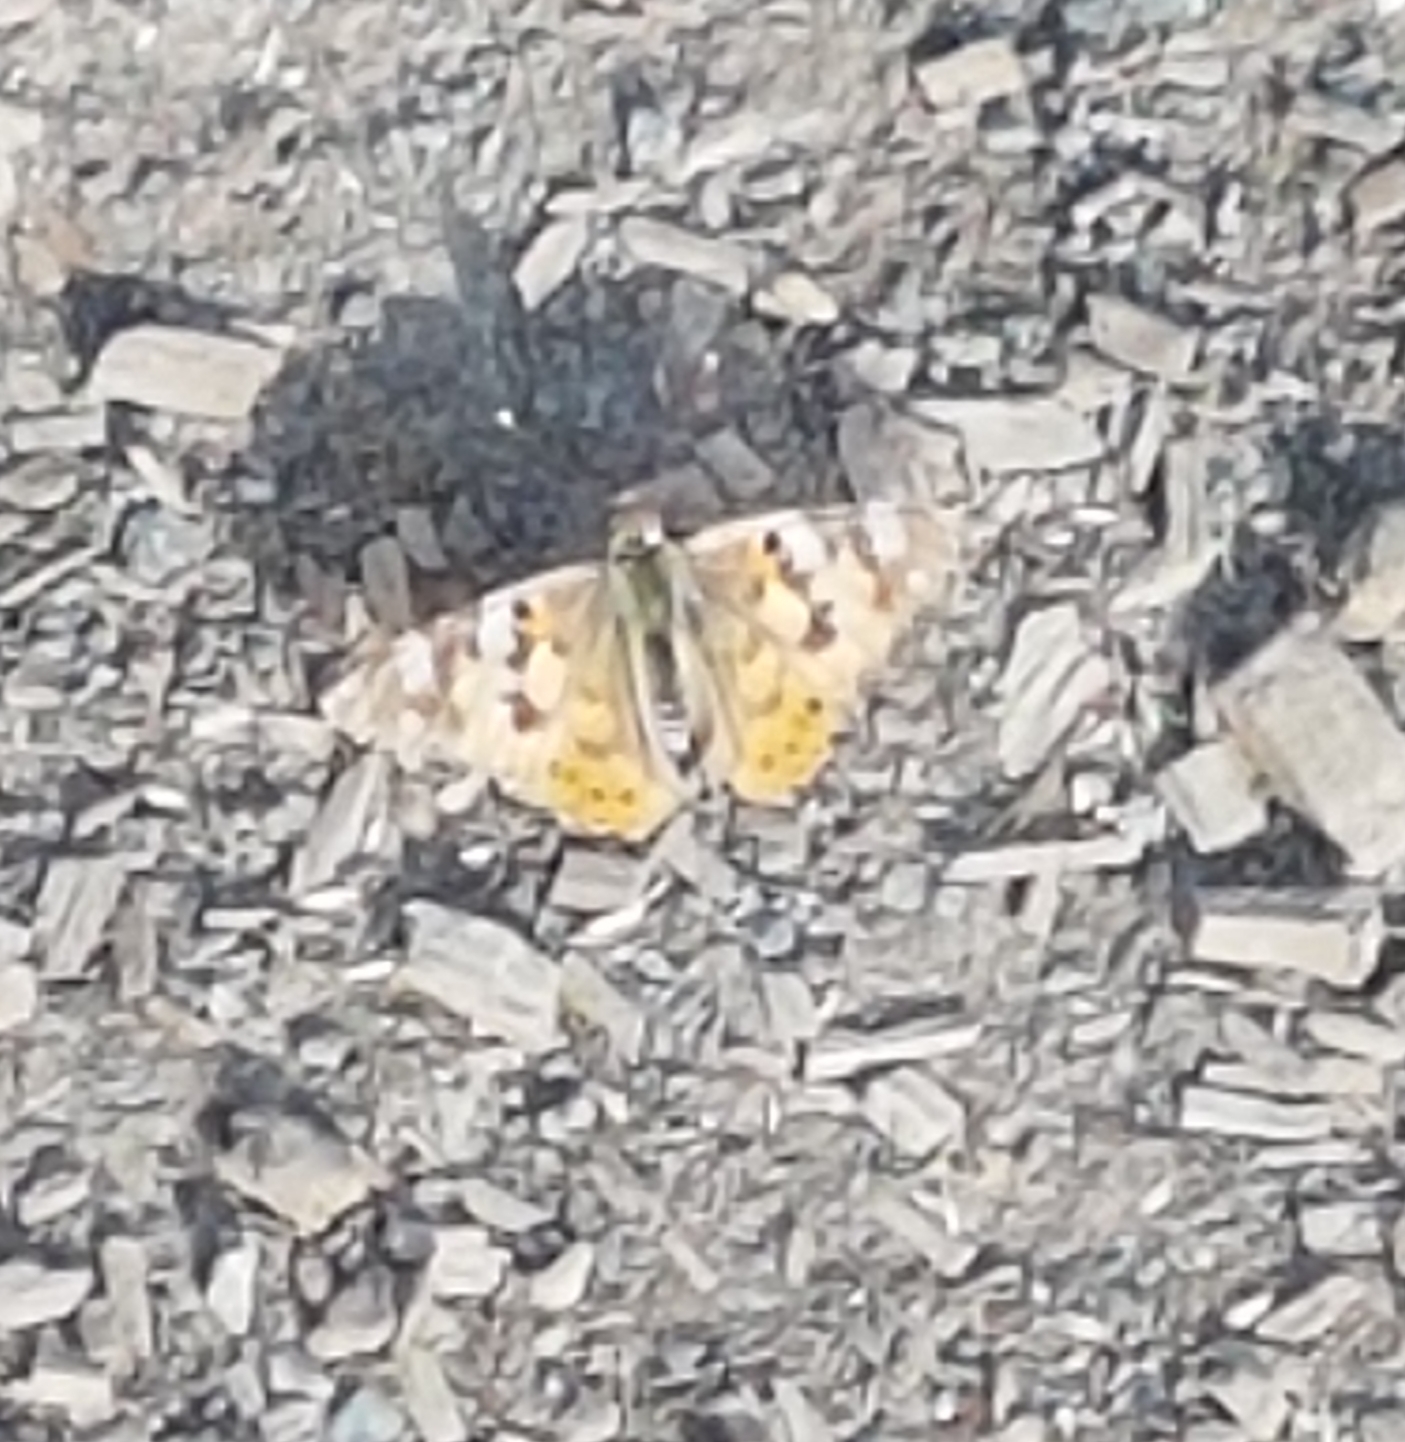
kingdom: Animalia
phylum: Arthropoda
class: Insecta
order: Lepidoptera
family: Nymphalidae
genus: Vanessa
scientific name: Vanessa cardui
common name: Painted lady
